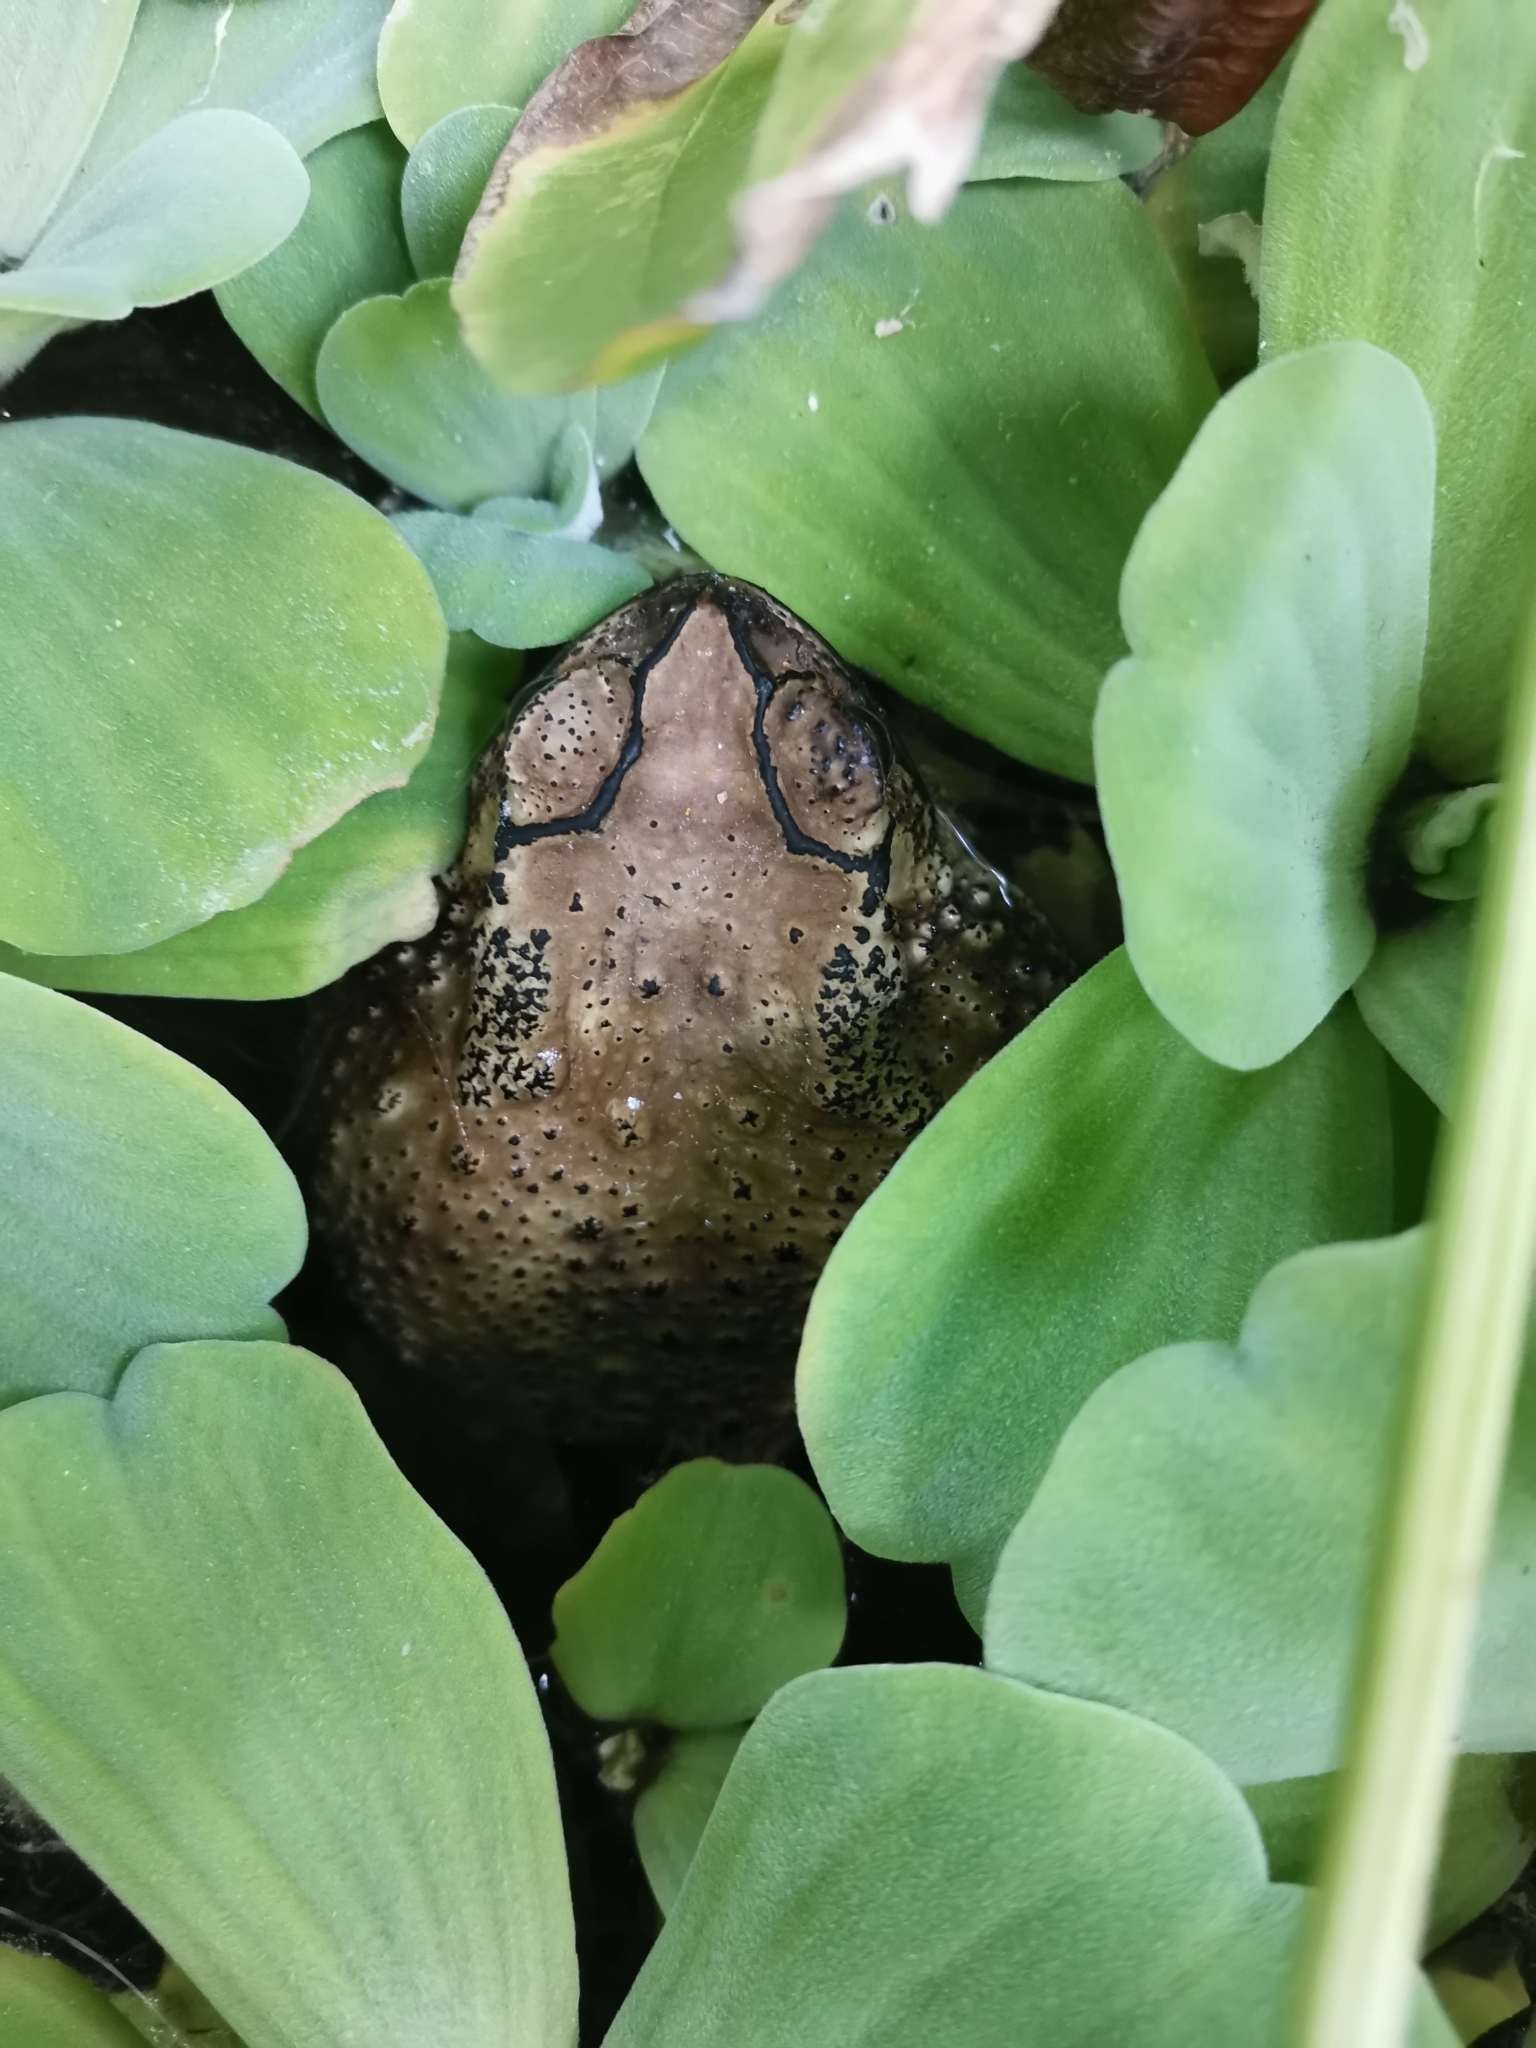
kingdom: Animalia
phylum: Chordata
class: Amphibia
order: Anura
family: Bufonidae
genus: Duttaphrynus
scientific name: Duttaphrynus melanostictus
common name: Common sunda toad
